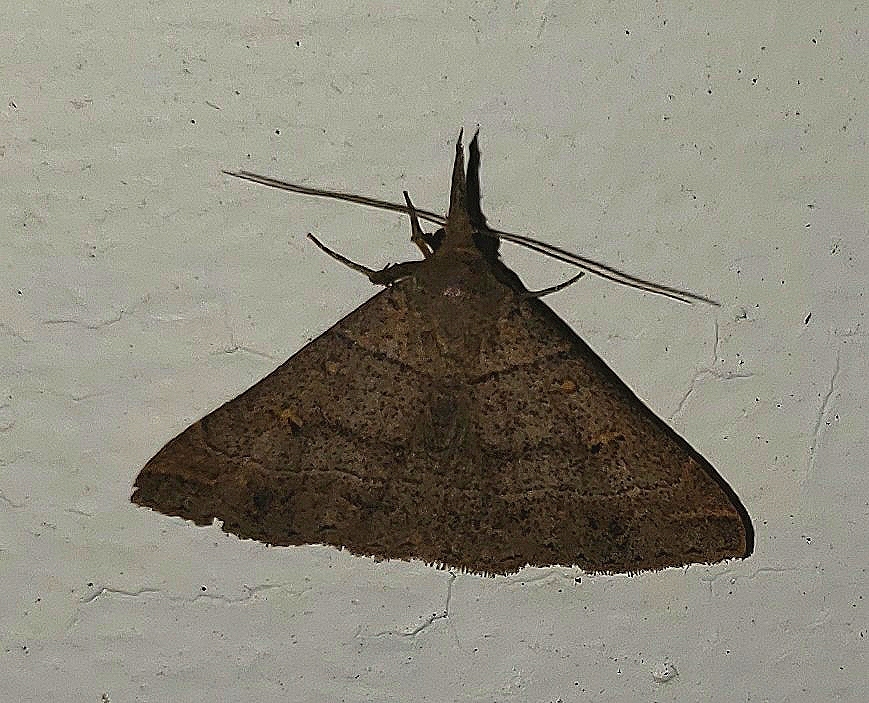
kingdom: Animalia
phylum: Arthropoda
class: Insecta
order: Lepidoptera
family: Erebidae
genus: Renia
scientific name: Renia flavipunctalis
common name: Yellow-spotted renia moth
